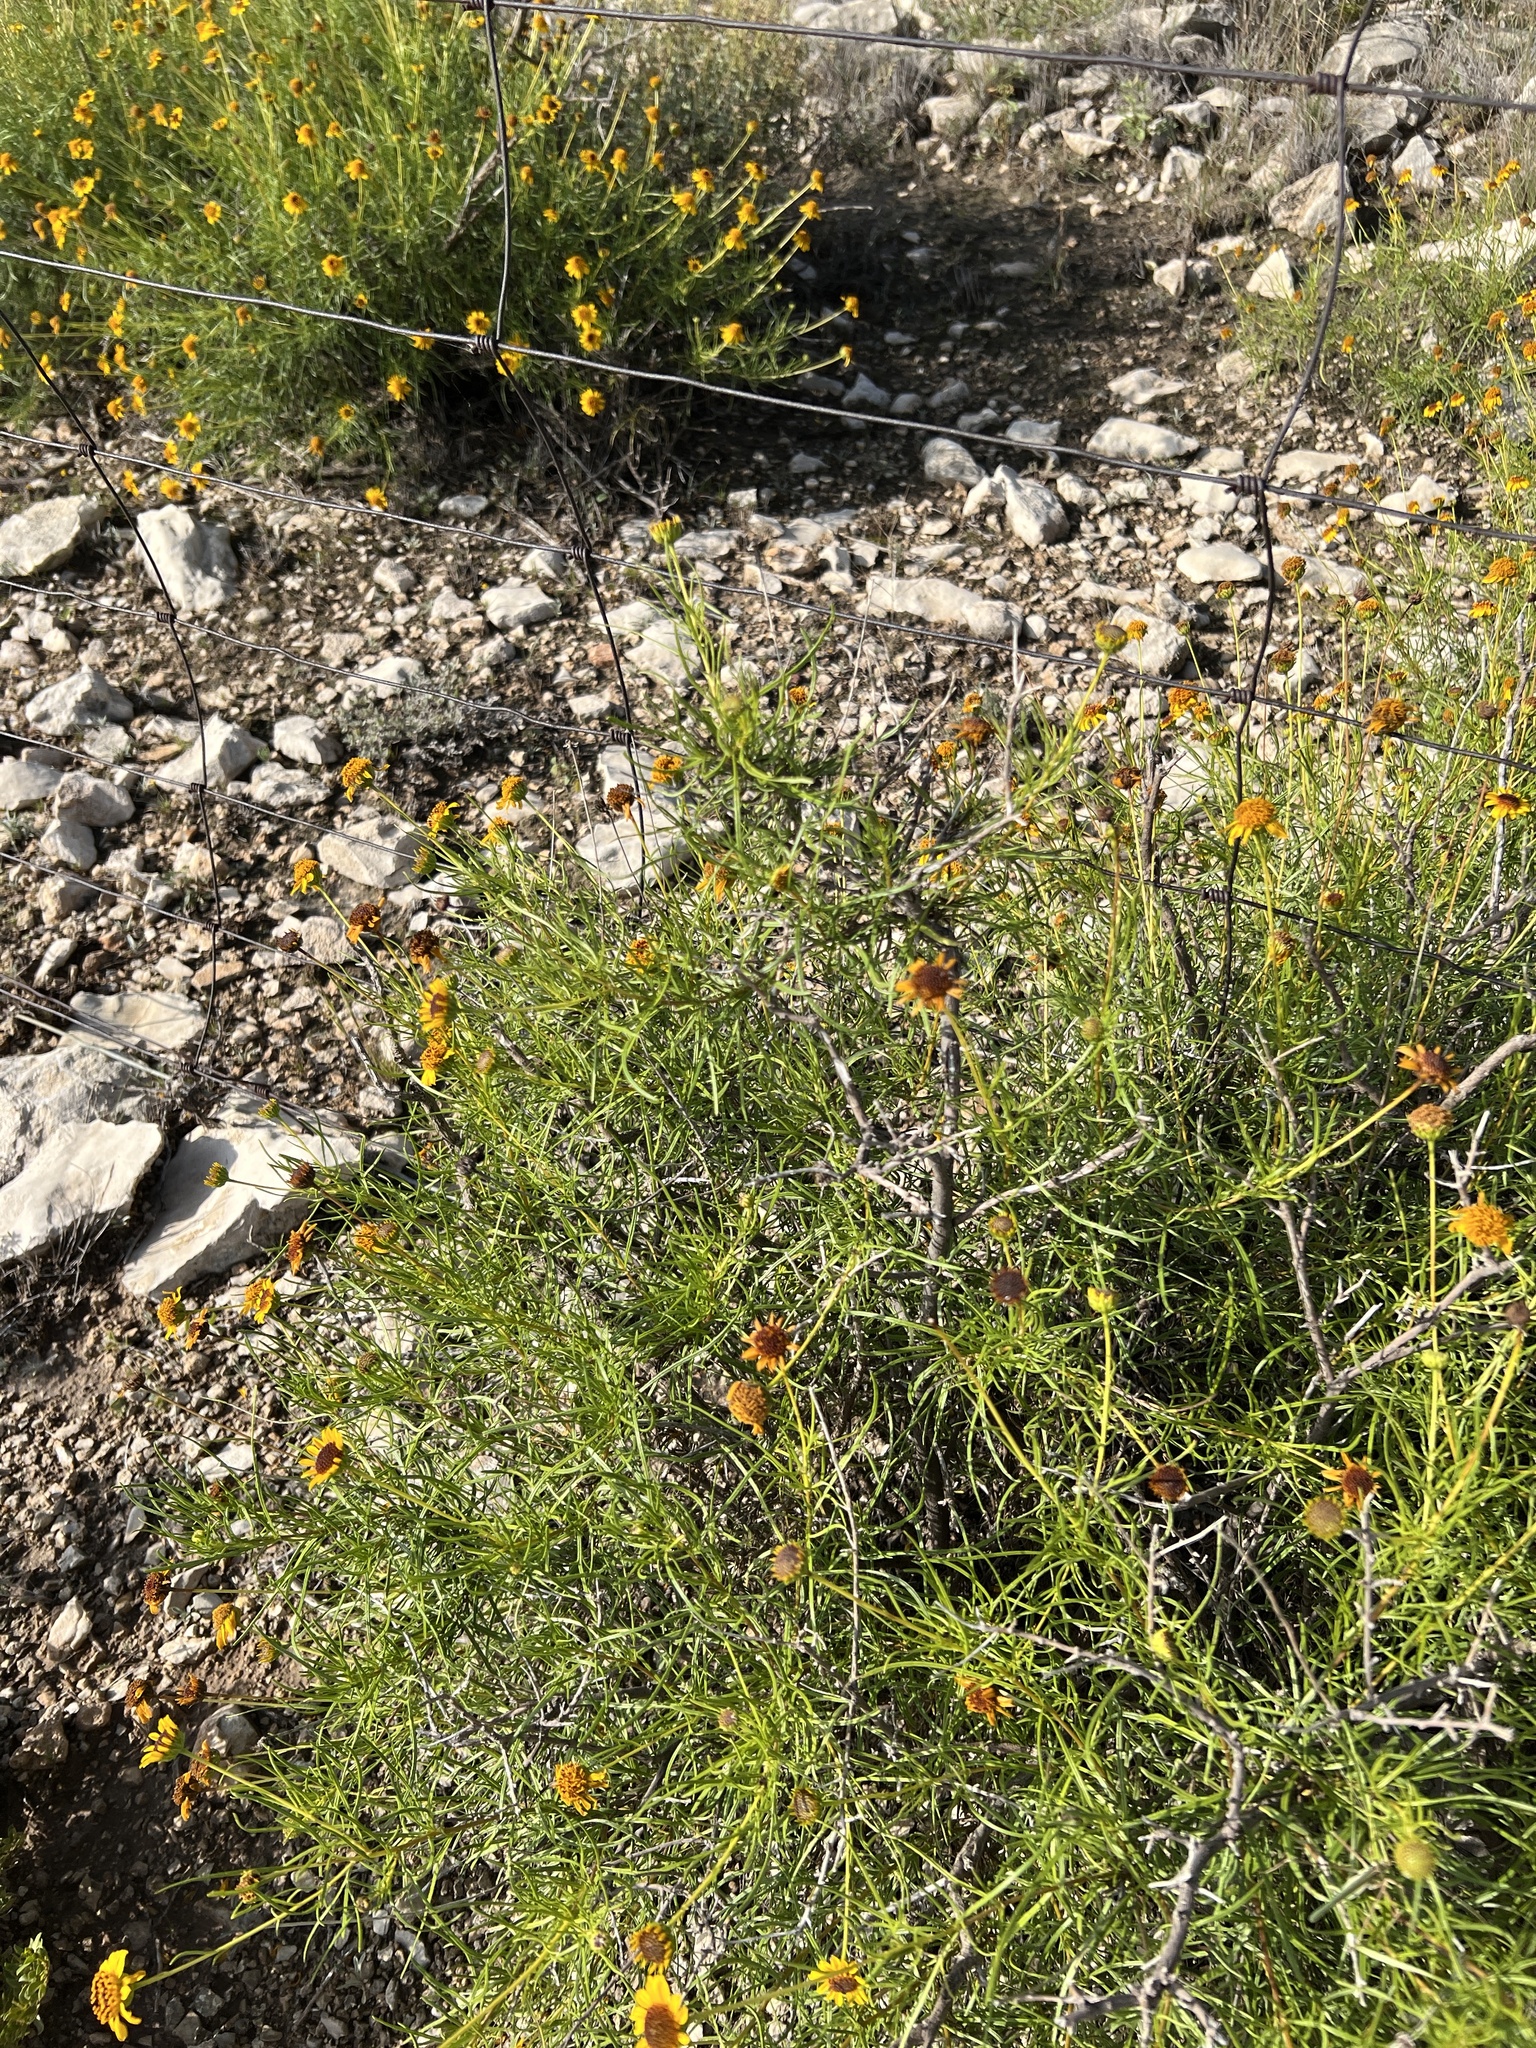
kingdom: Plantae
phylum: Tracheophyta
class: Magnoliopsida
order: Asterales
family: Asteraceae
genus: Sidneya
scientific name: Sidneya tenuifolia
